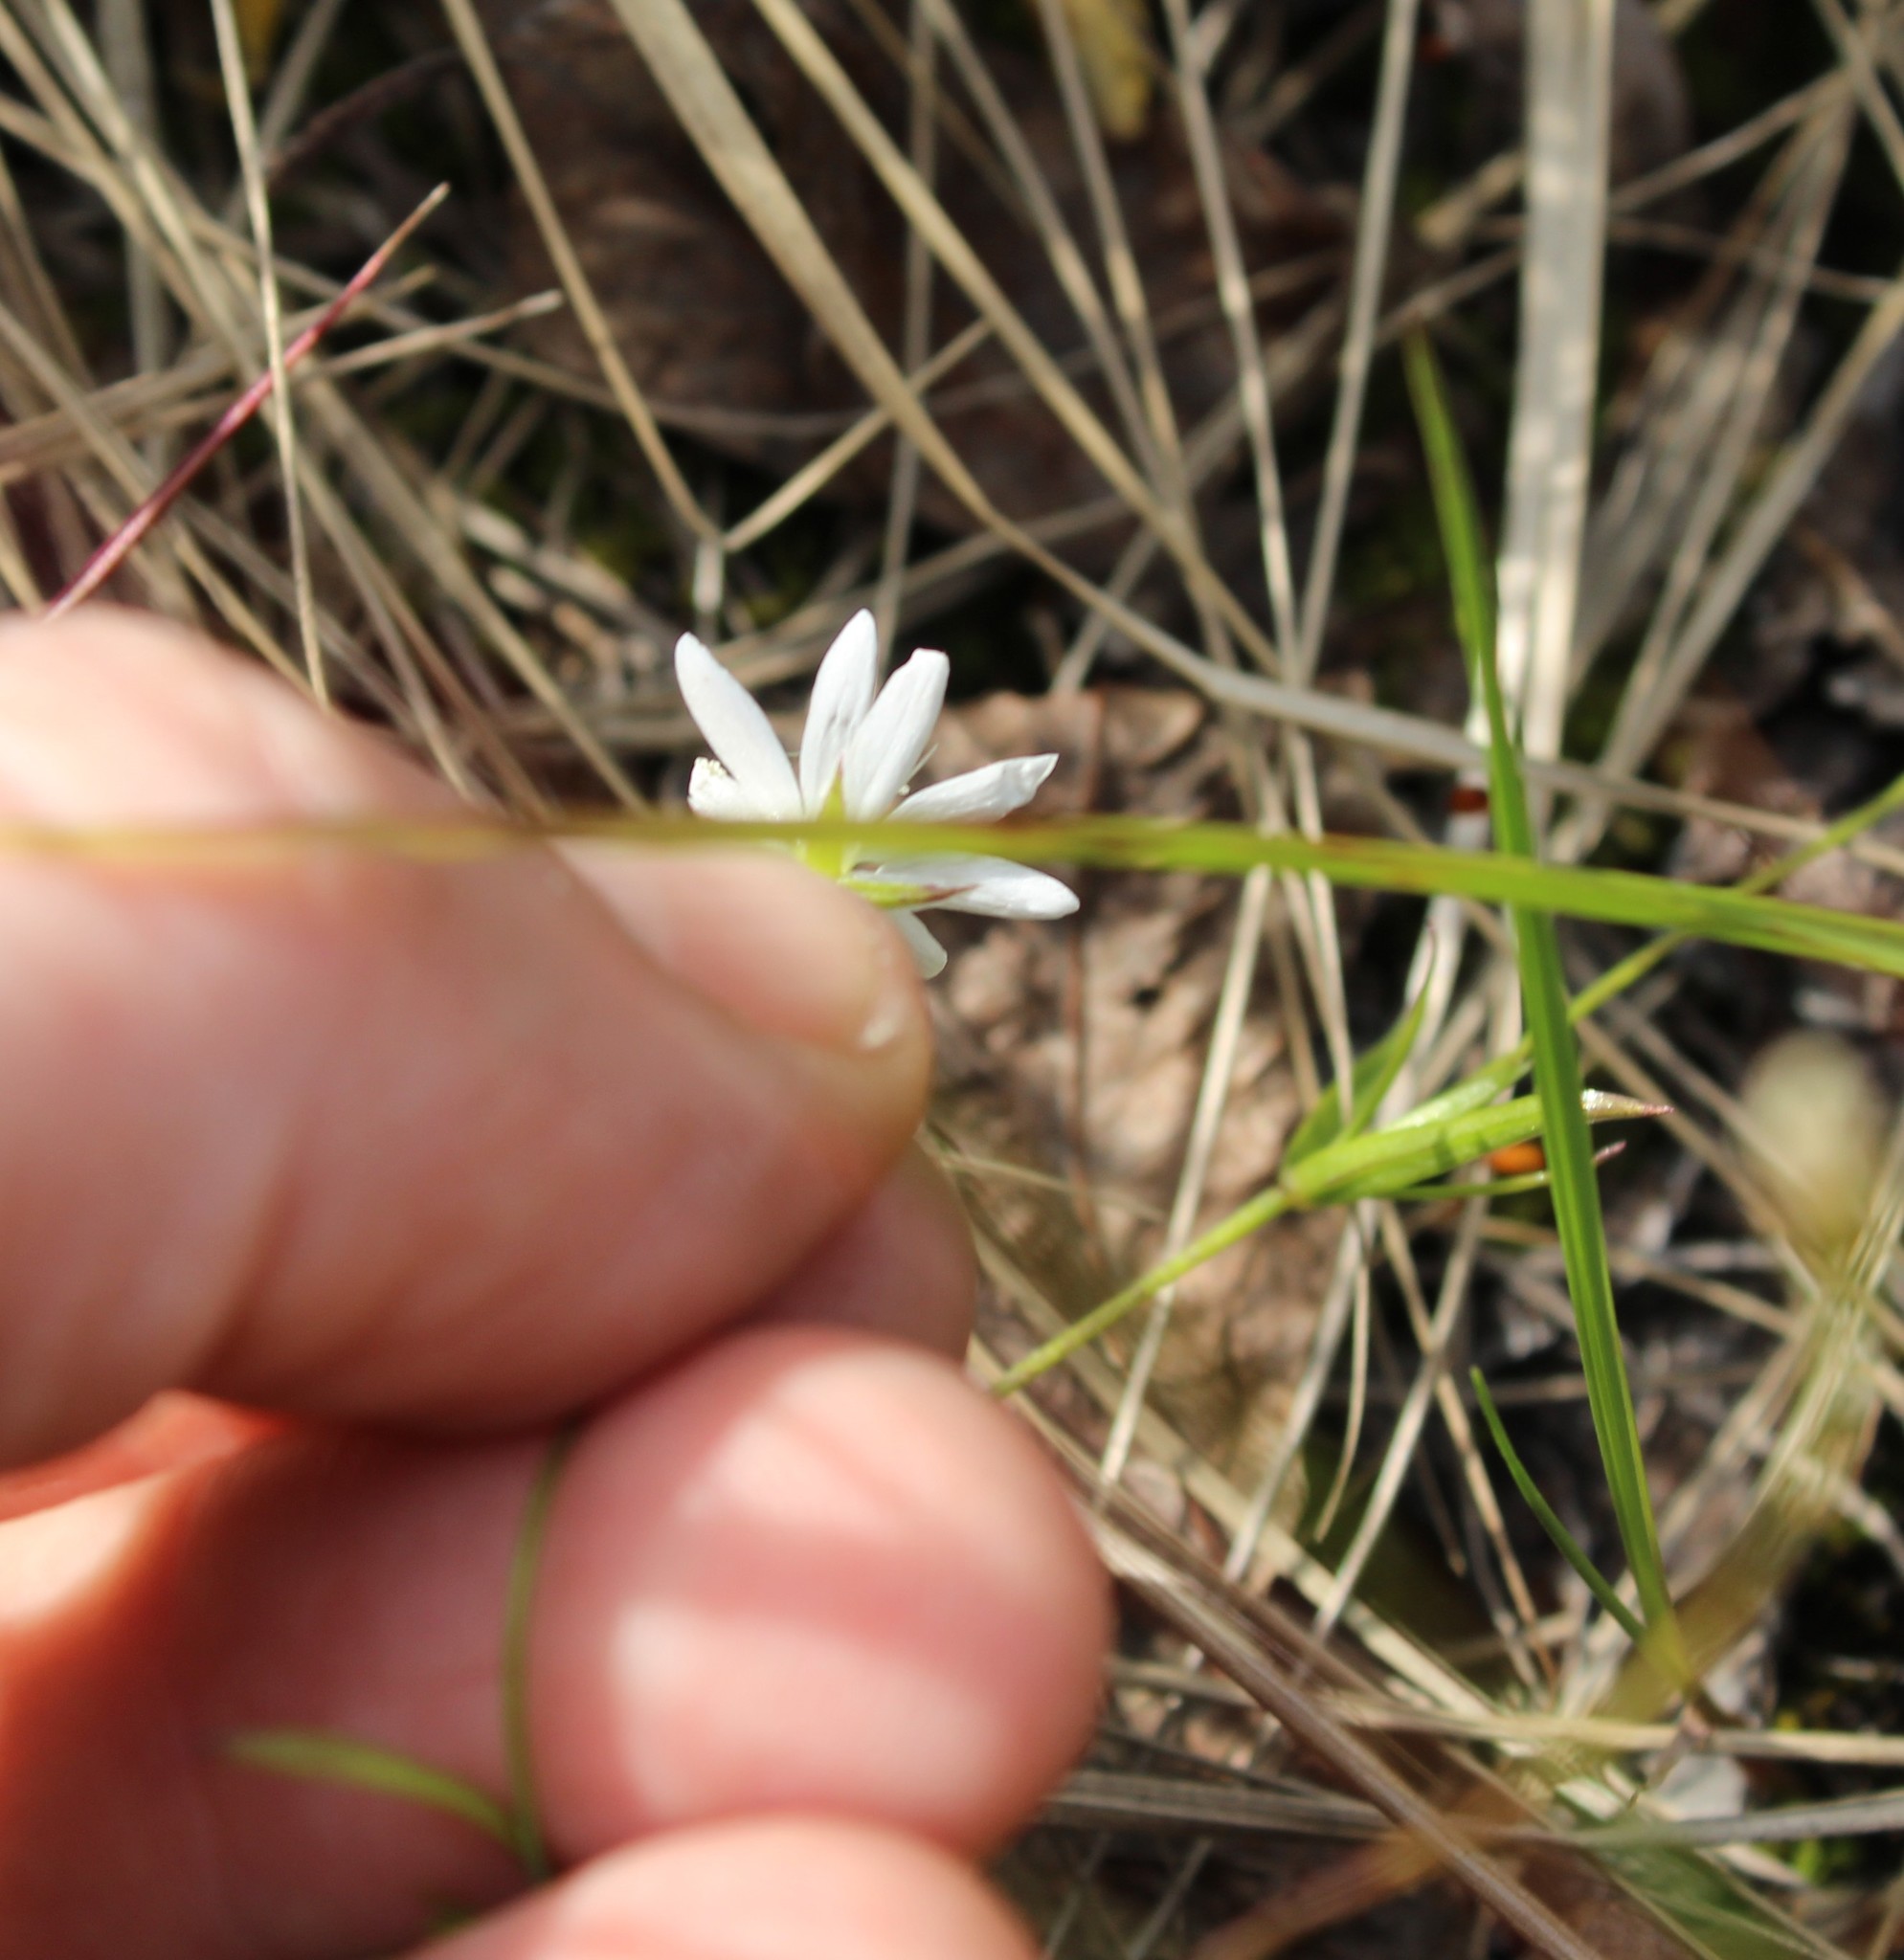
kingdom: Plantae
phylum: Tracheophyta
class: Magnoliopsida
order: Caryophyllales
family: Caryophyllaceae
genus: Stellaria
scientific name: Stellaria peduncularis
